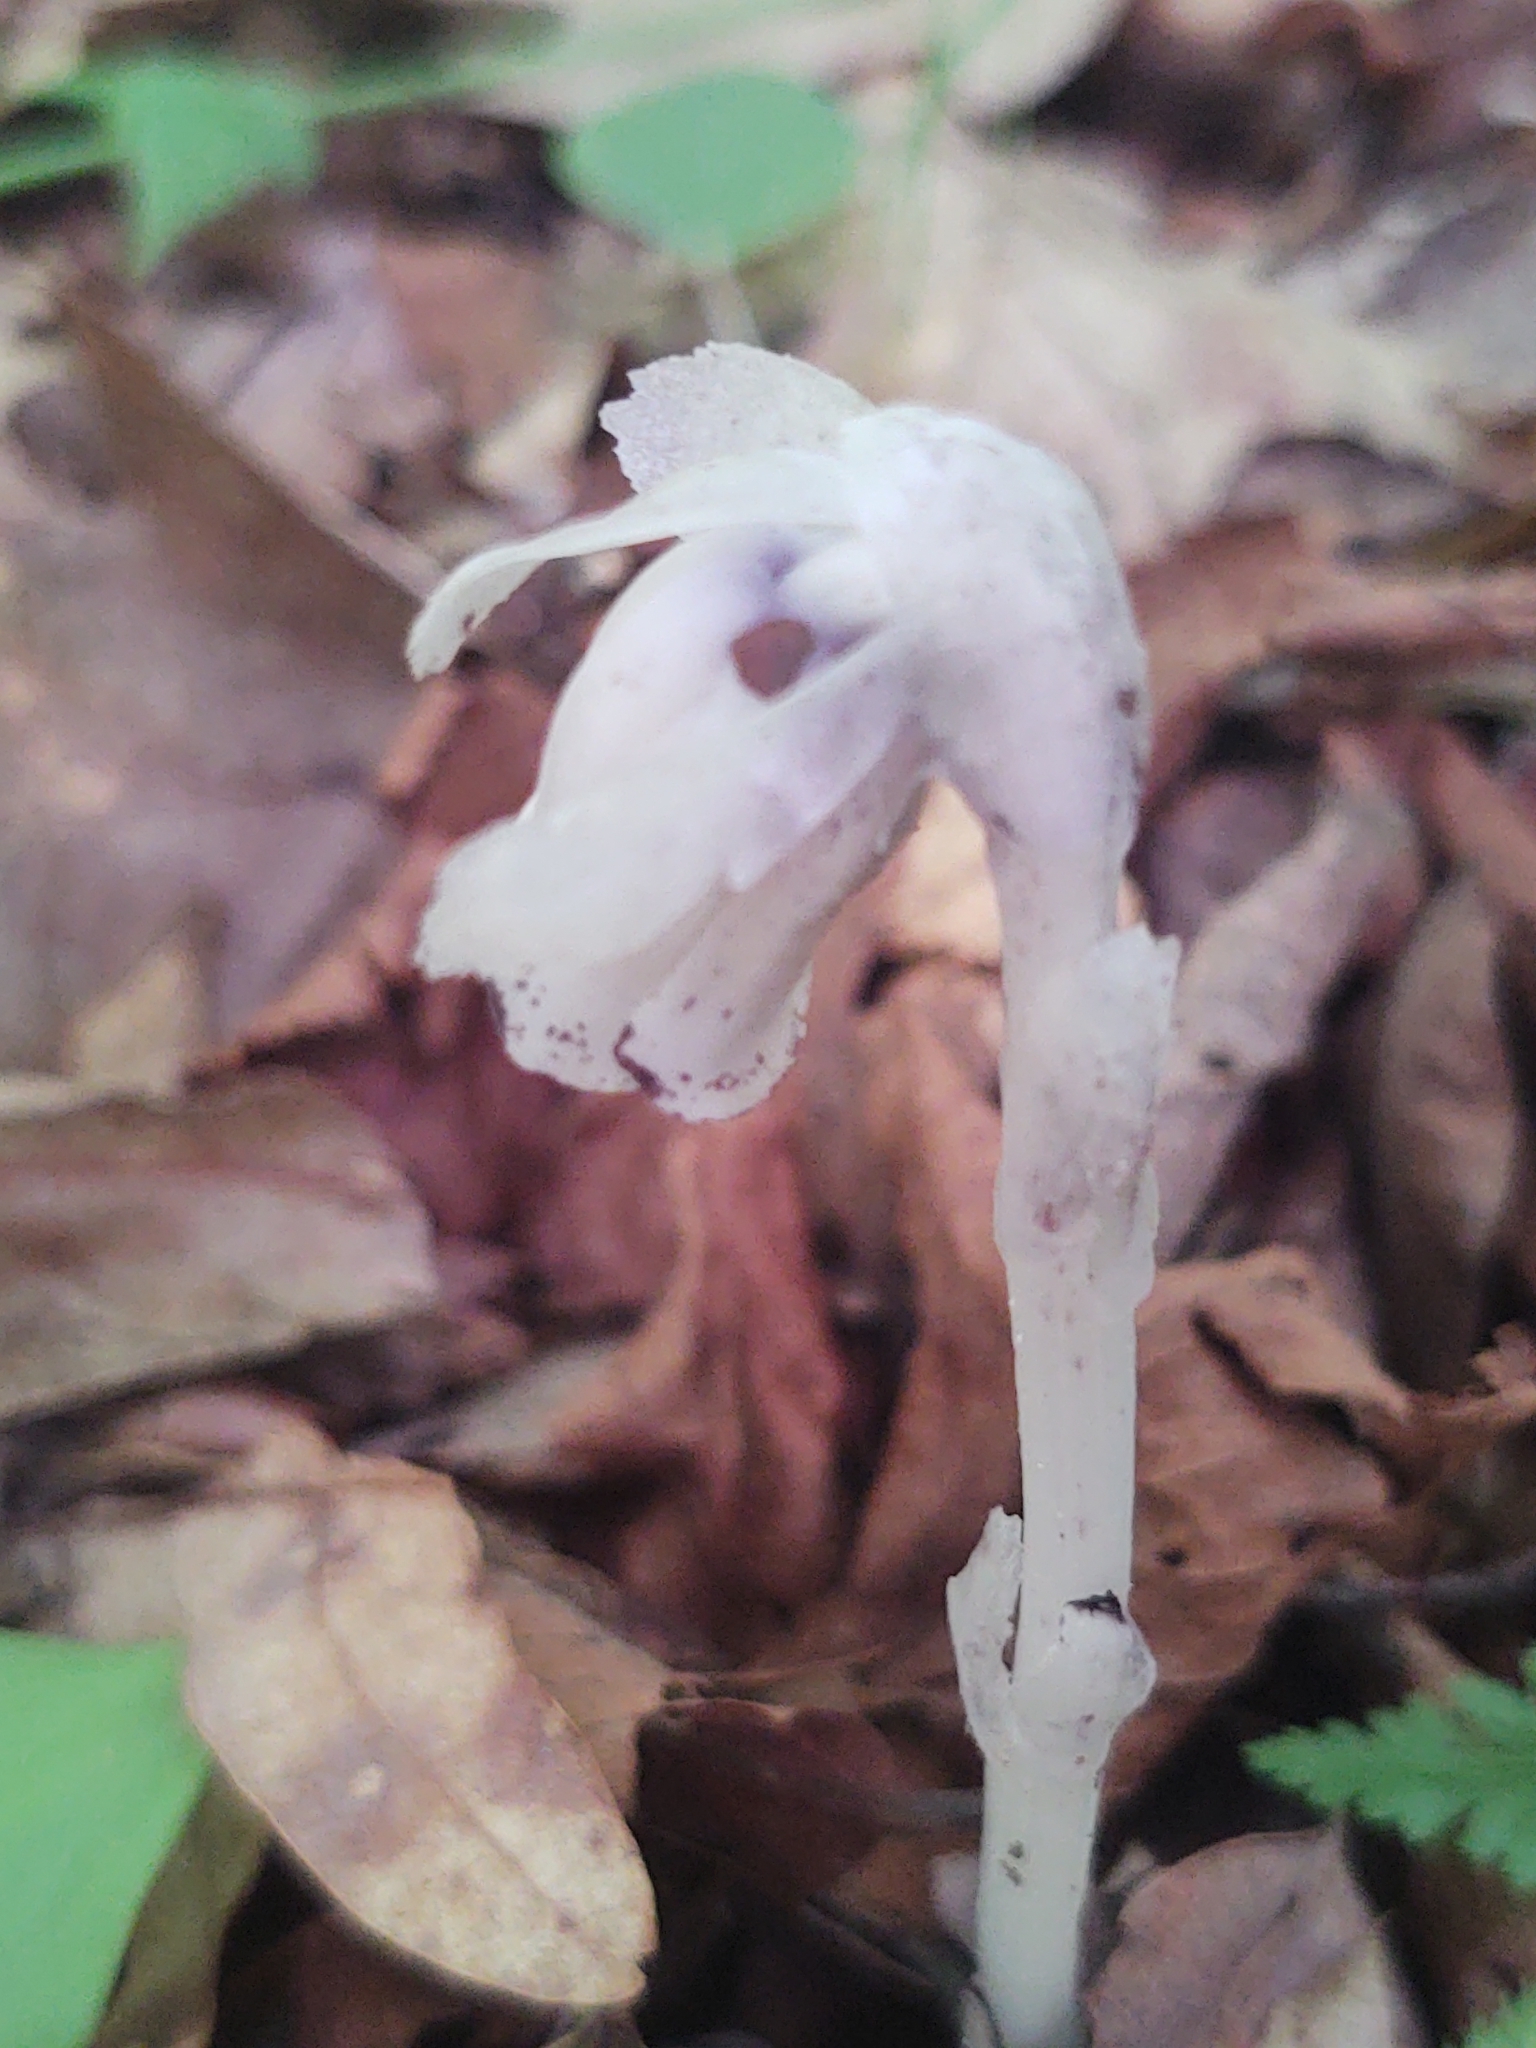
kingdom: Plantae
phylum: Tracheophyta
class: Magnoliopsida
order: Ericales
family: Ericaceae
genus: Monotropa
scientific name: Monotropa uniflora
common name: Convulsion root
